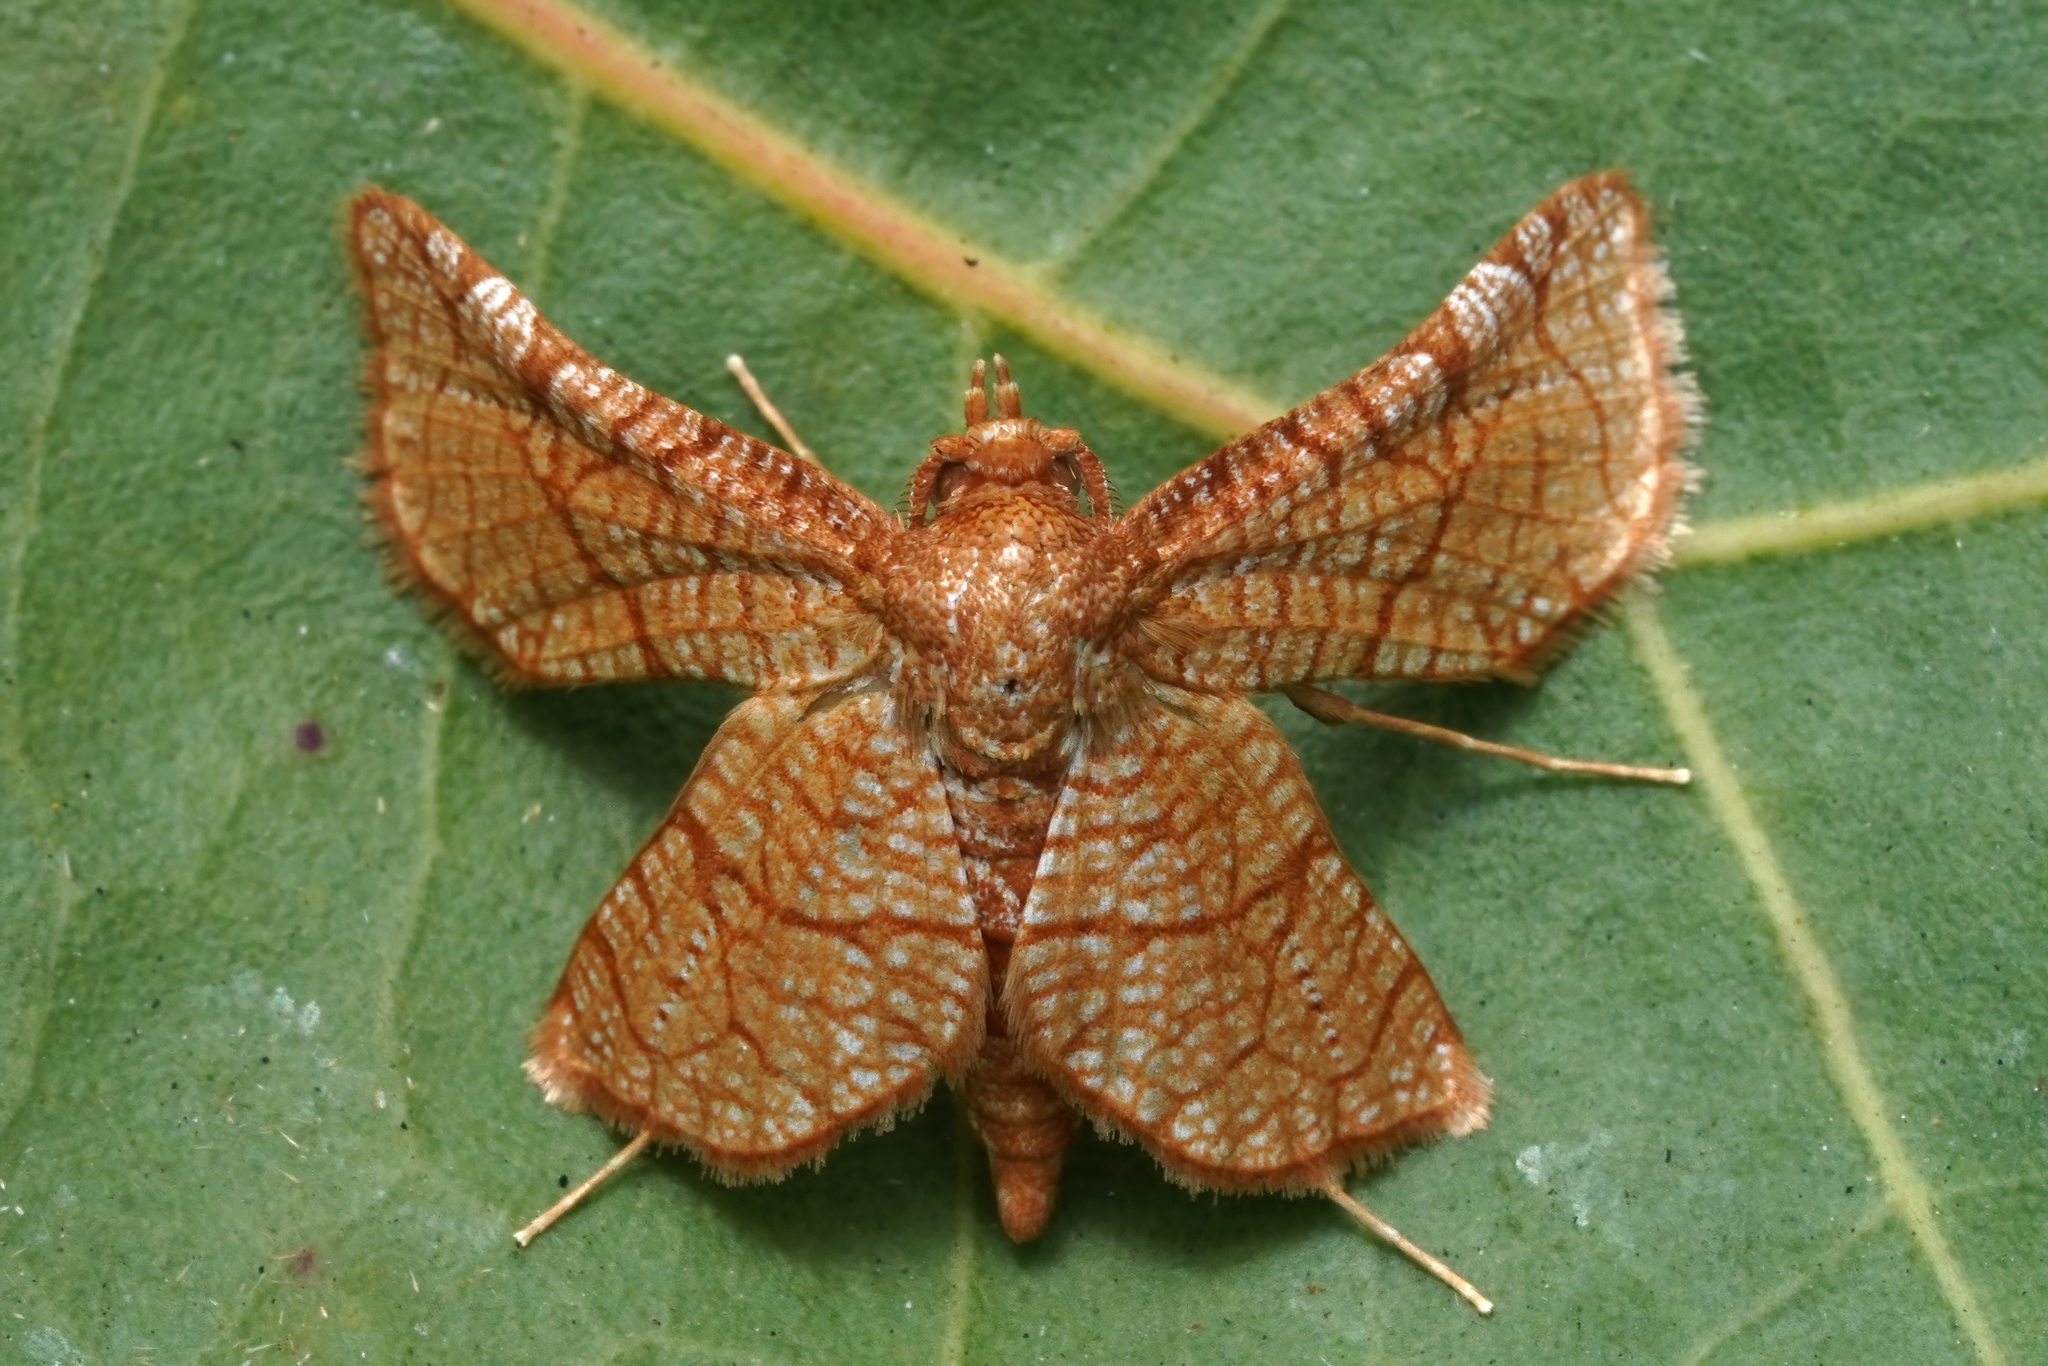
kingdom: Animalia
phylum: Arthropoda
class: Insecta
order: Lepidoptera
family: Thyrididae
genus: Hexeris
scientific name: Hexeris enhydris
